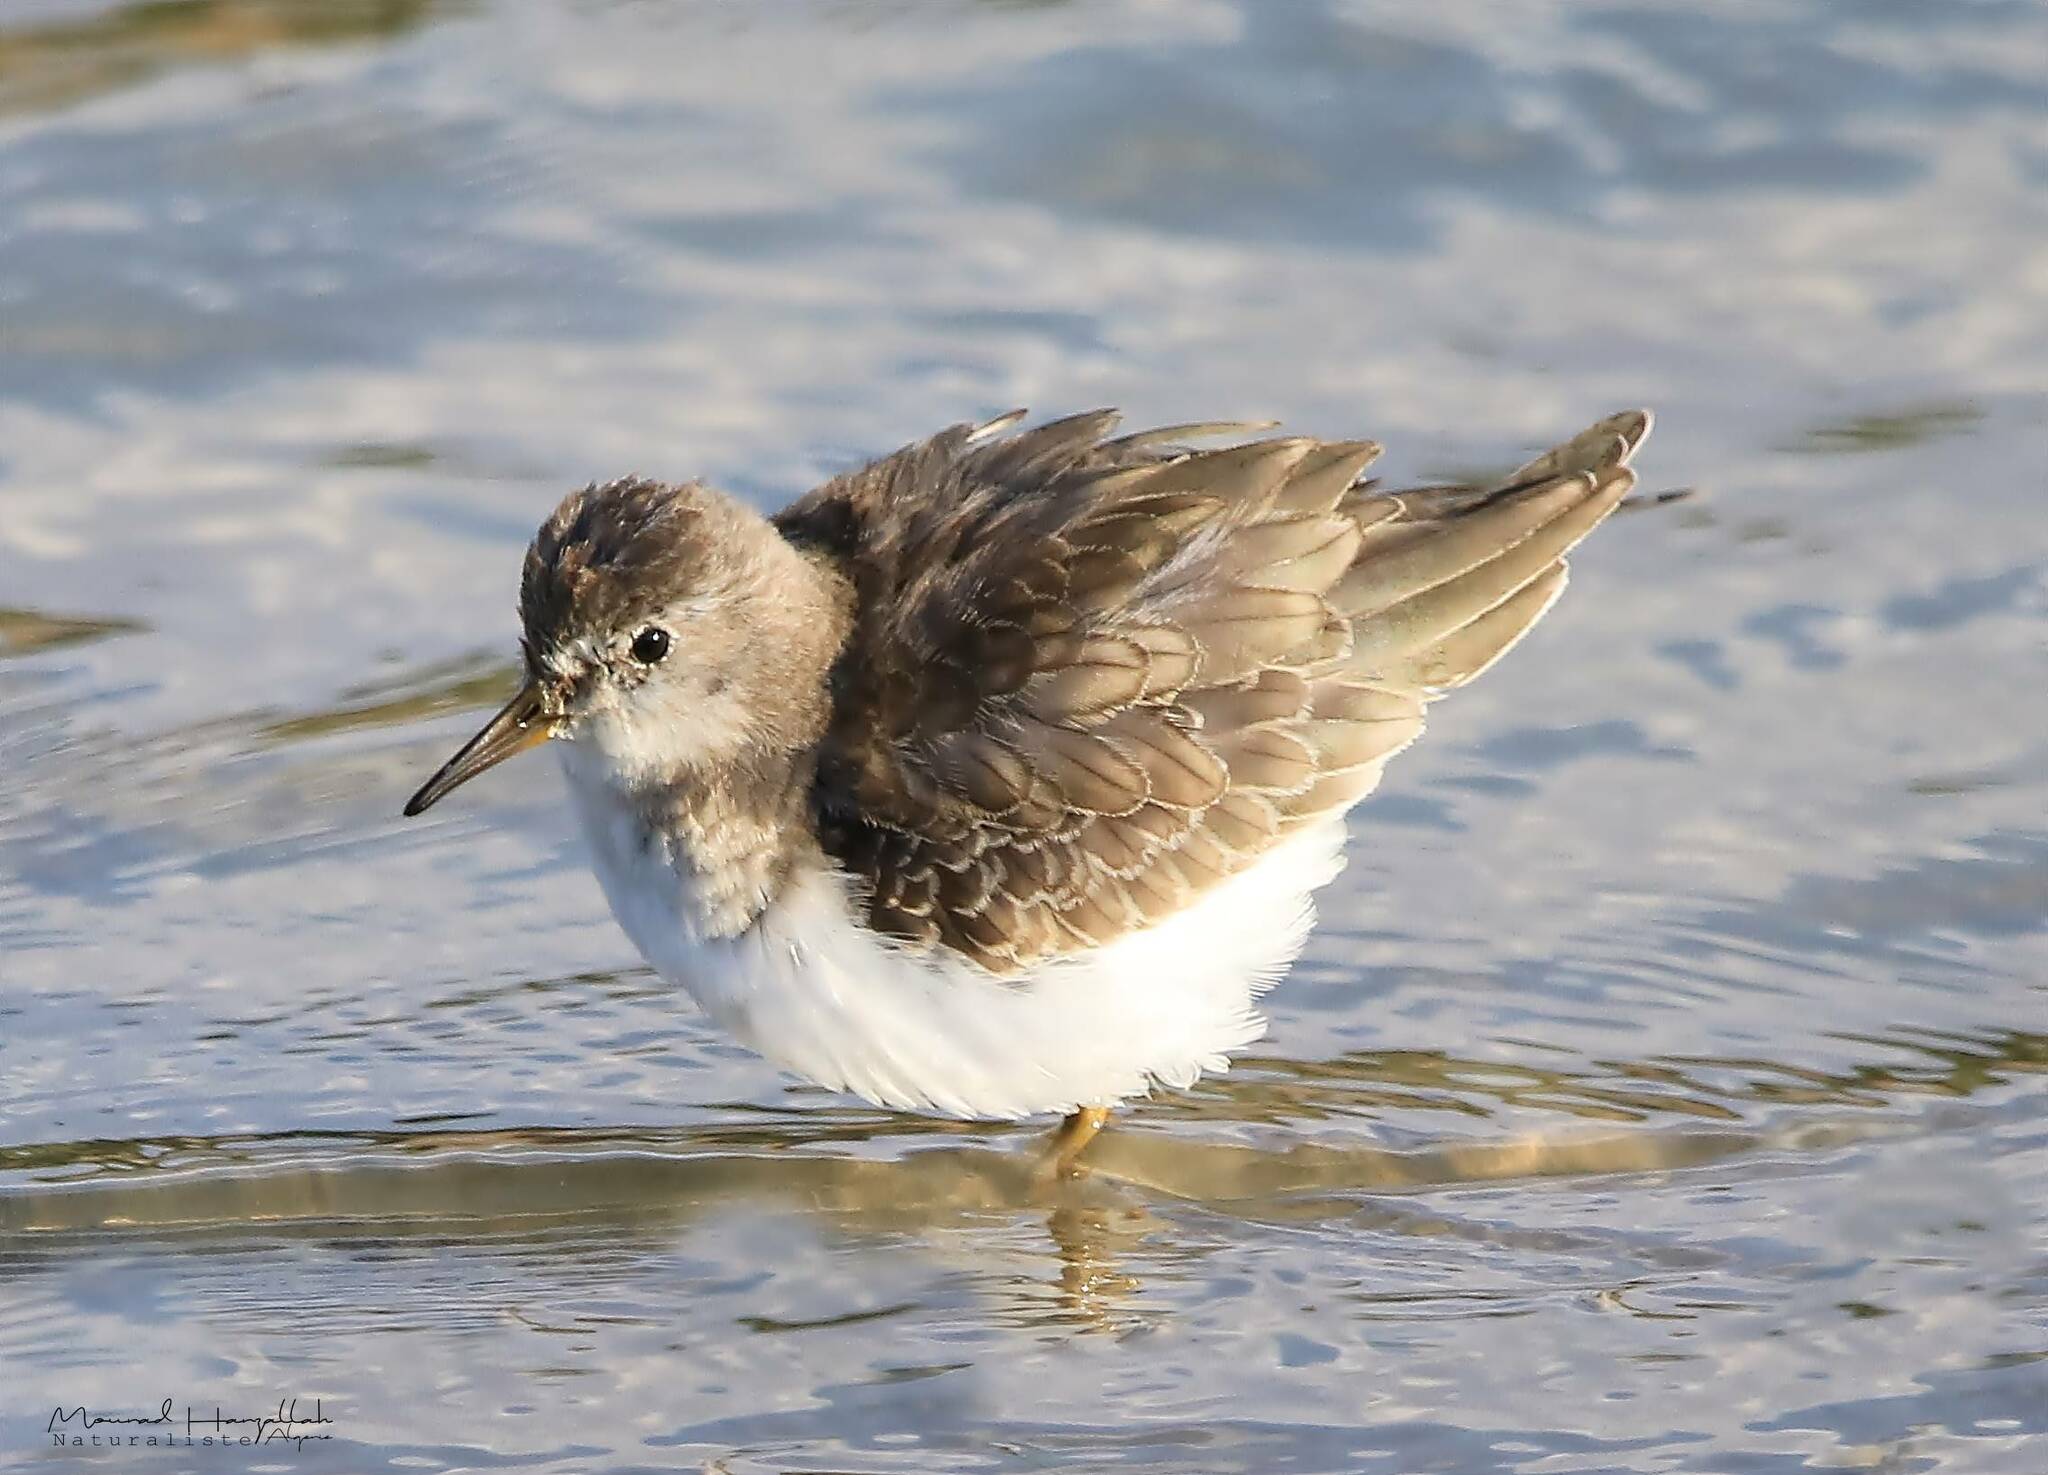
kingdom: Animalia
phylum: Chordata
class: Aves
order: Charadriiformes
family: Scolopacidae
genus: Calidris
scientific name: Calidris temminckii
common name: Temminck's stint
